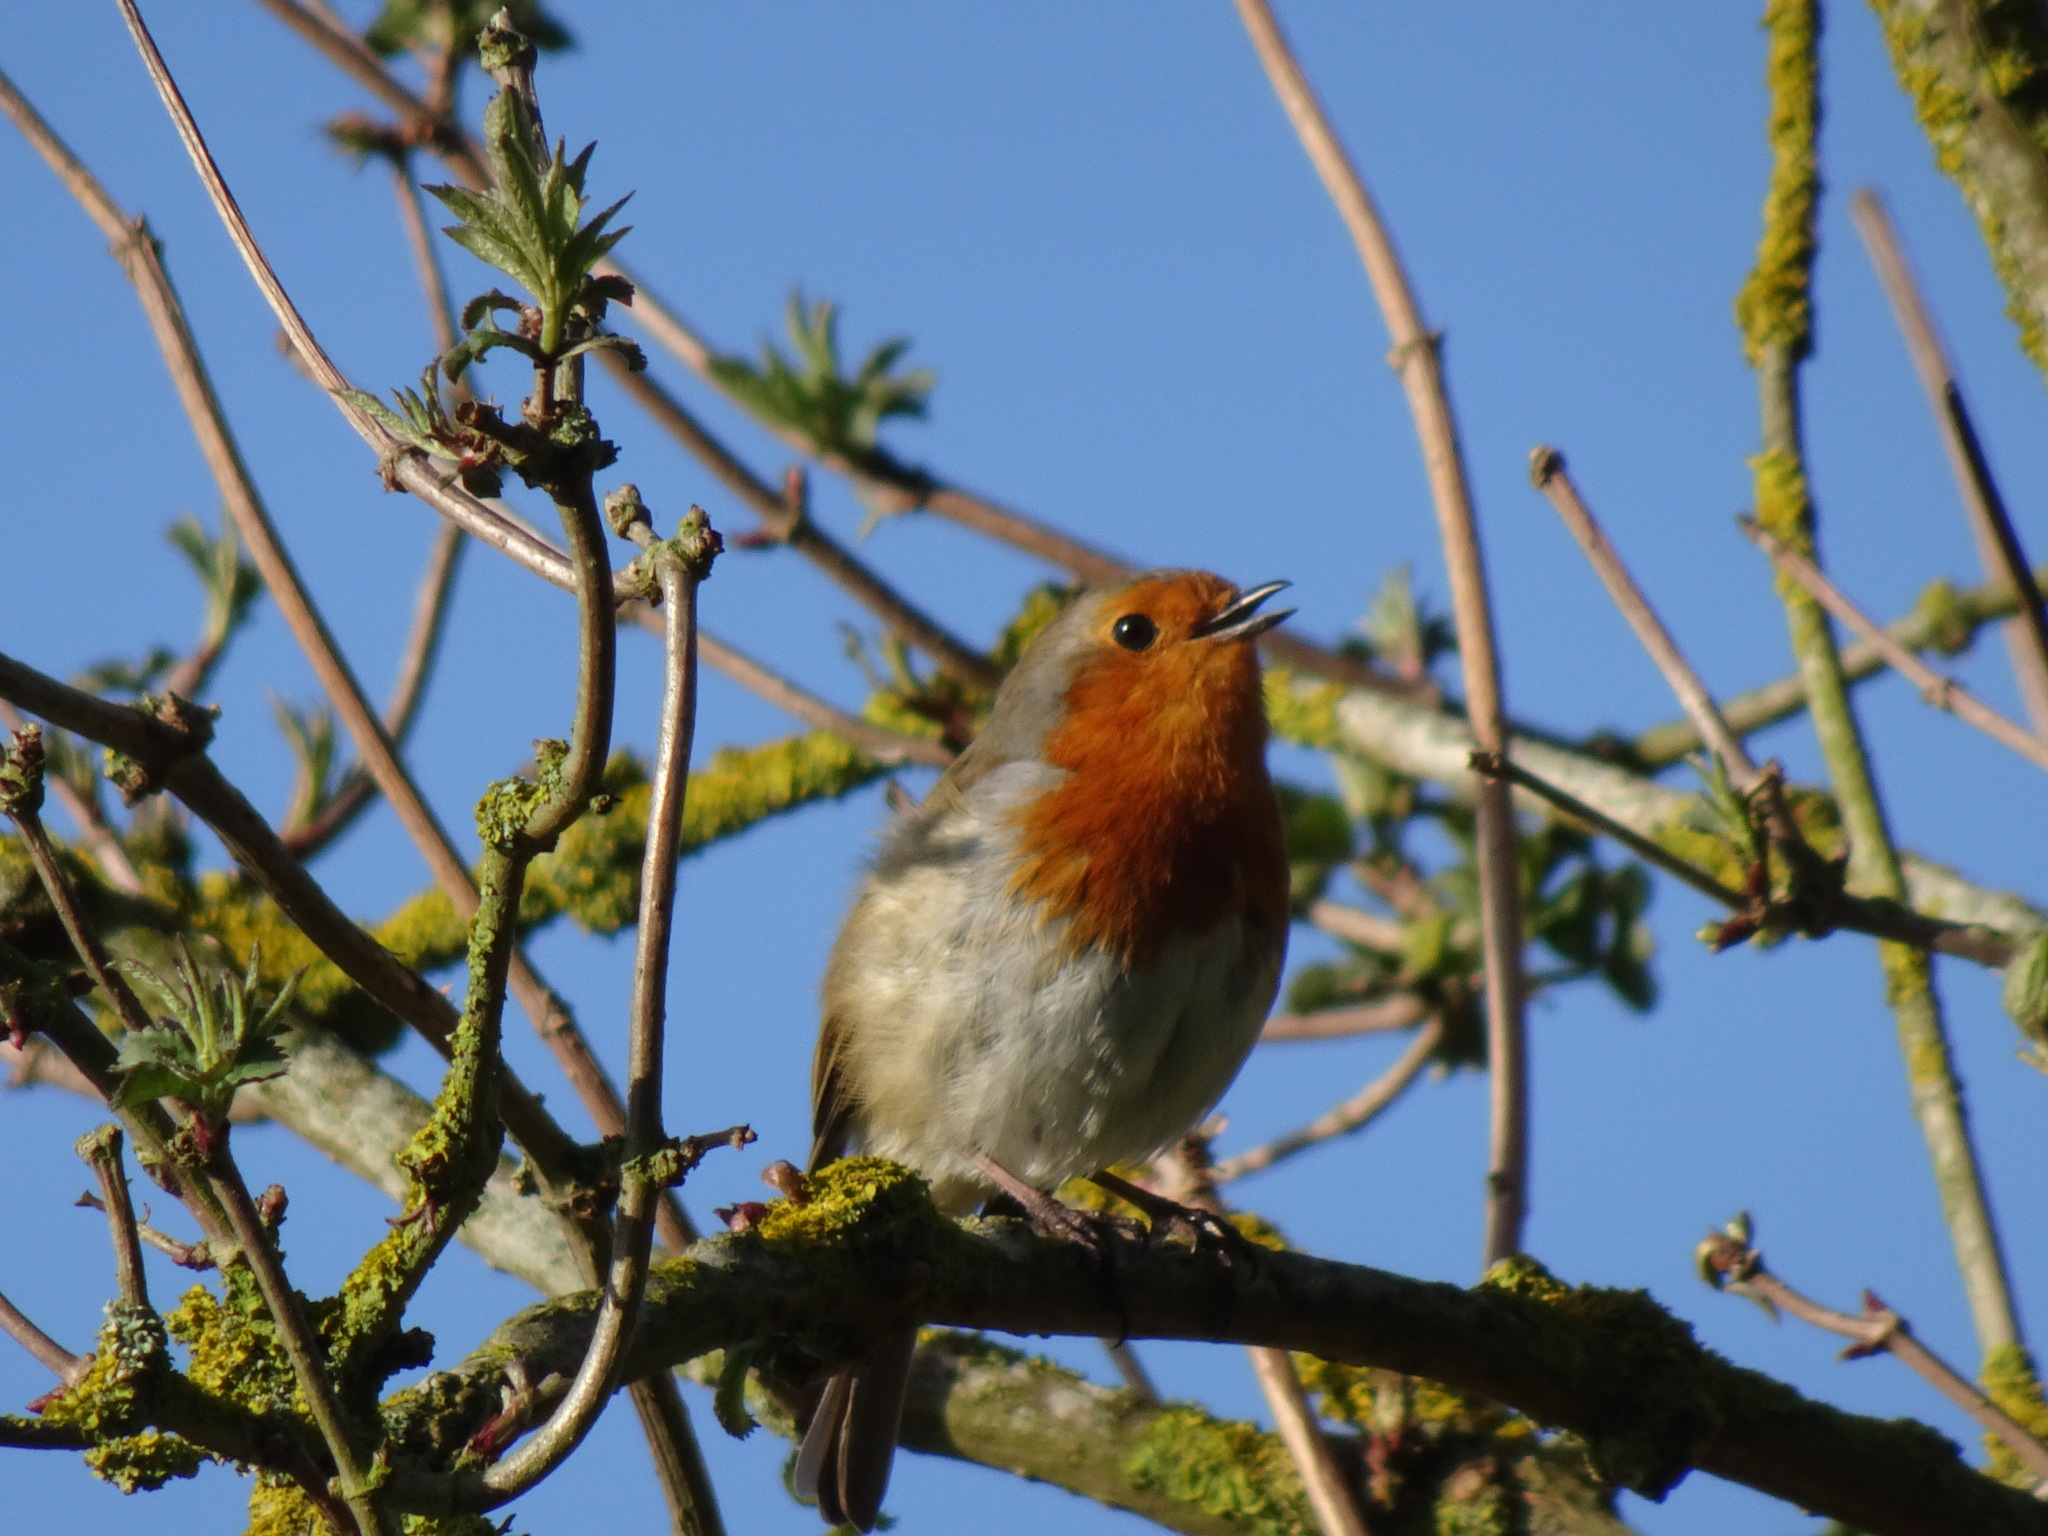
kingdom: Animalia
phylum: Chordata
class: Aves
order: Passeriformes
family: Muscicapidae
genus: Erithacus
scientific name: Erithacus rubecula
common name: European robin
